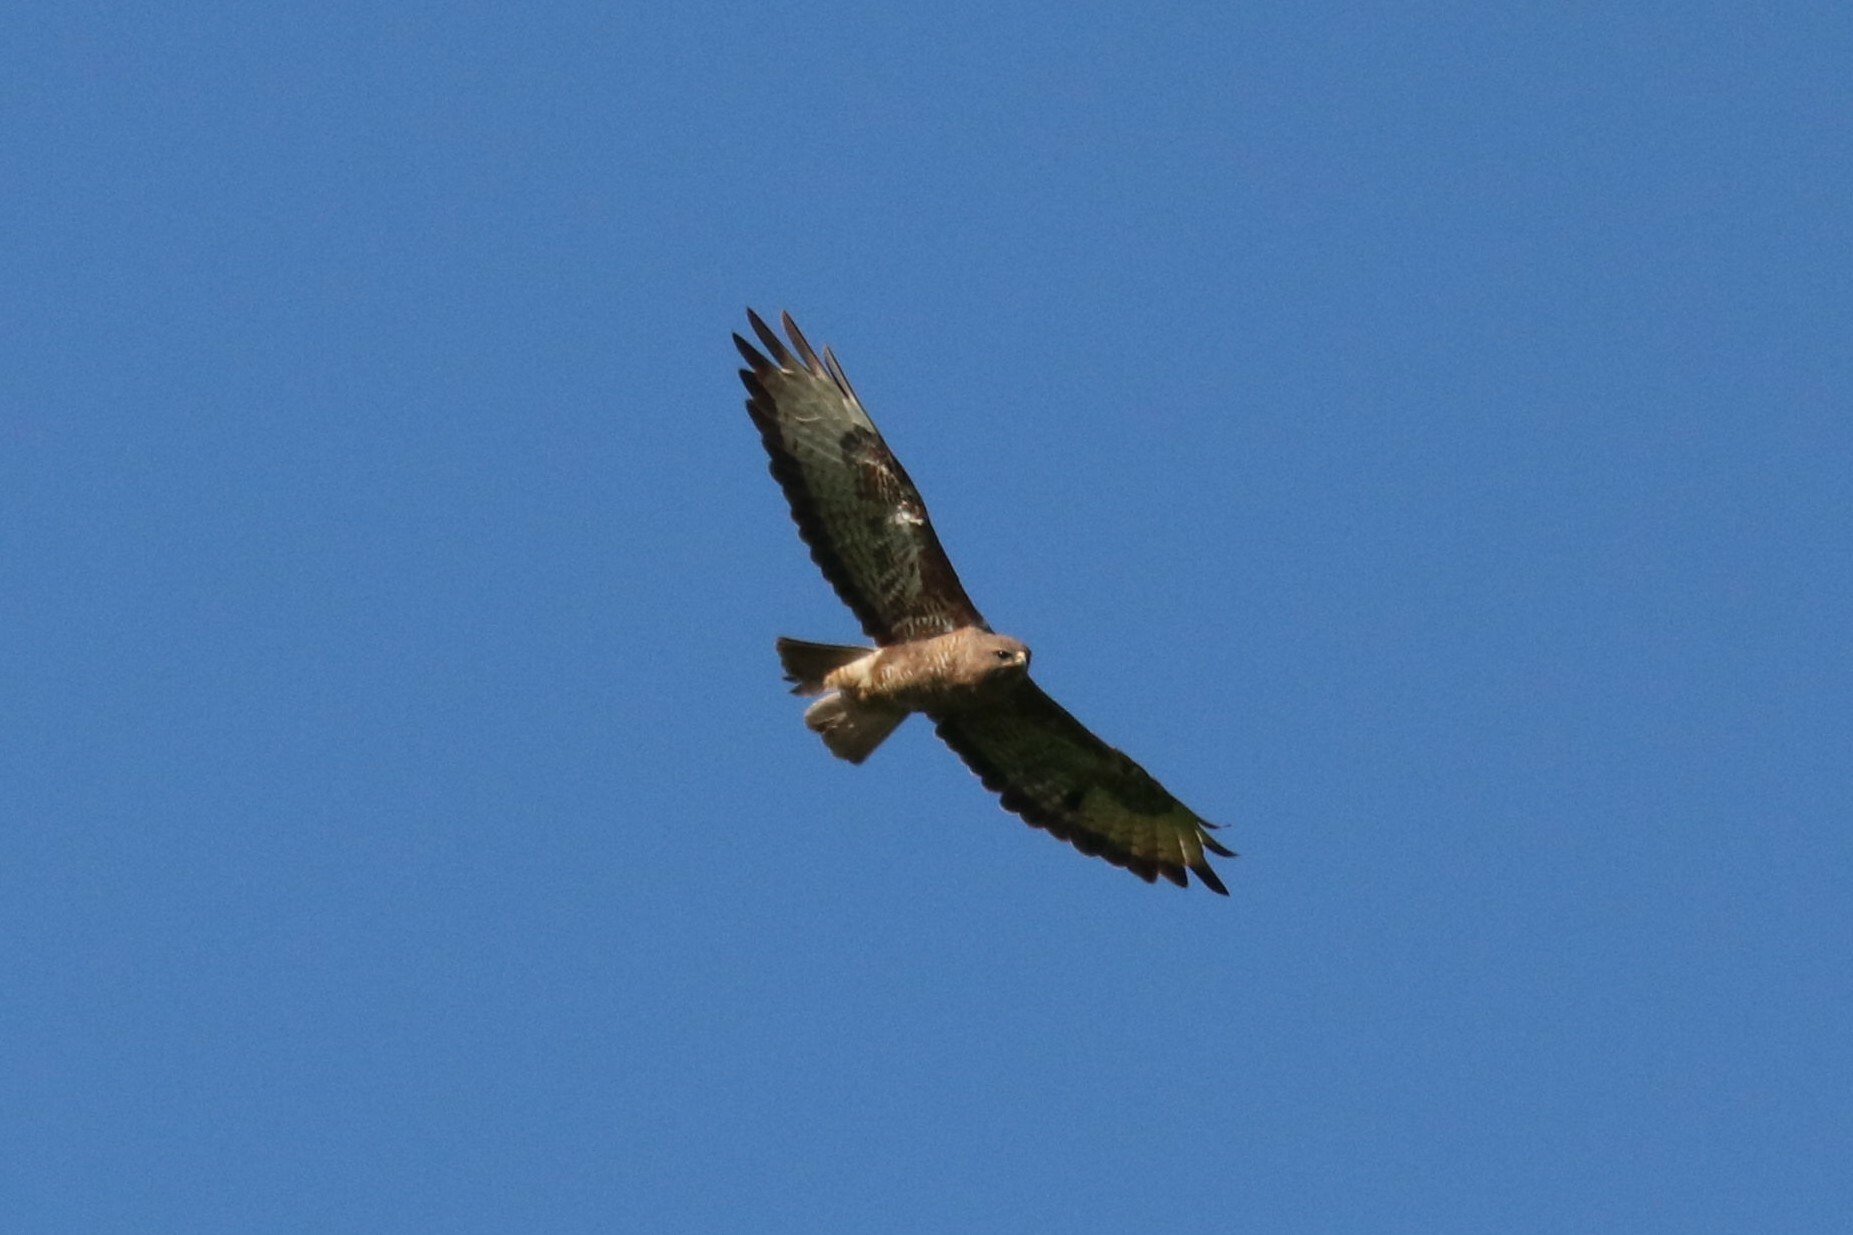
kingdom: Animalia
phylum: Chordata
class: Aves
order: Accipitriformes
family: Accipitridae
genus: Buteo
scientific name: Buteo buteo
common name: Common buzzard
